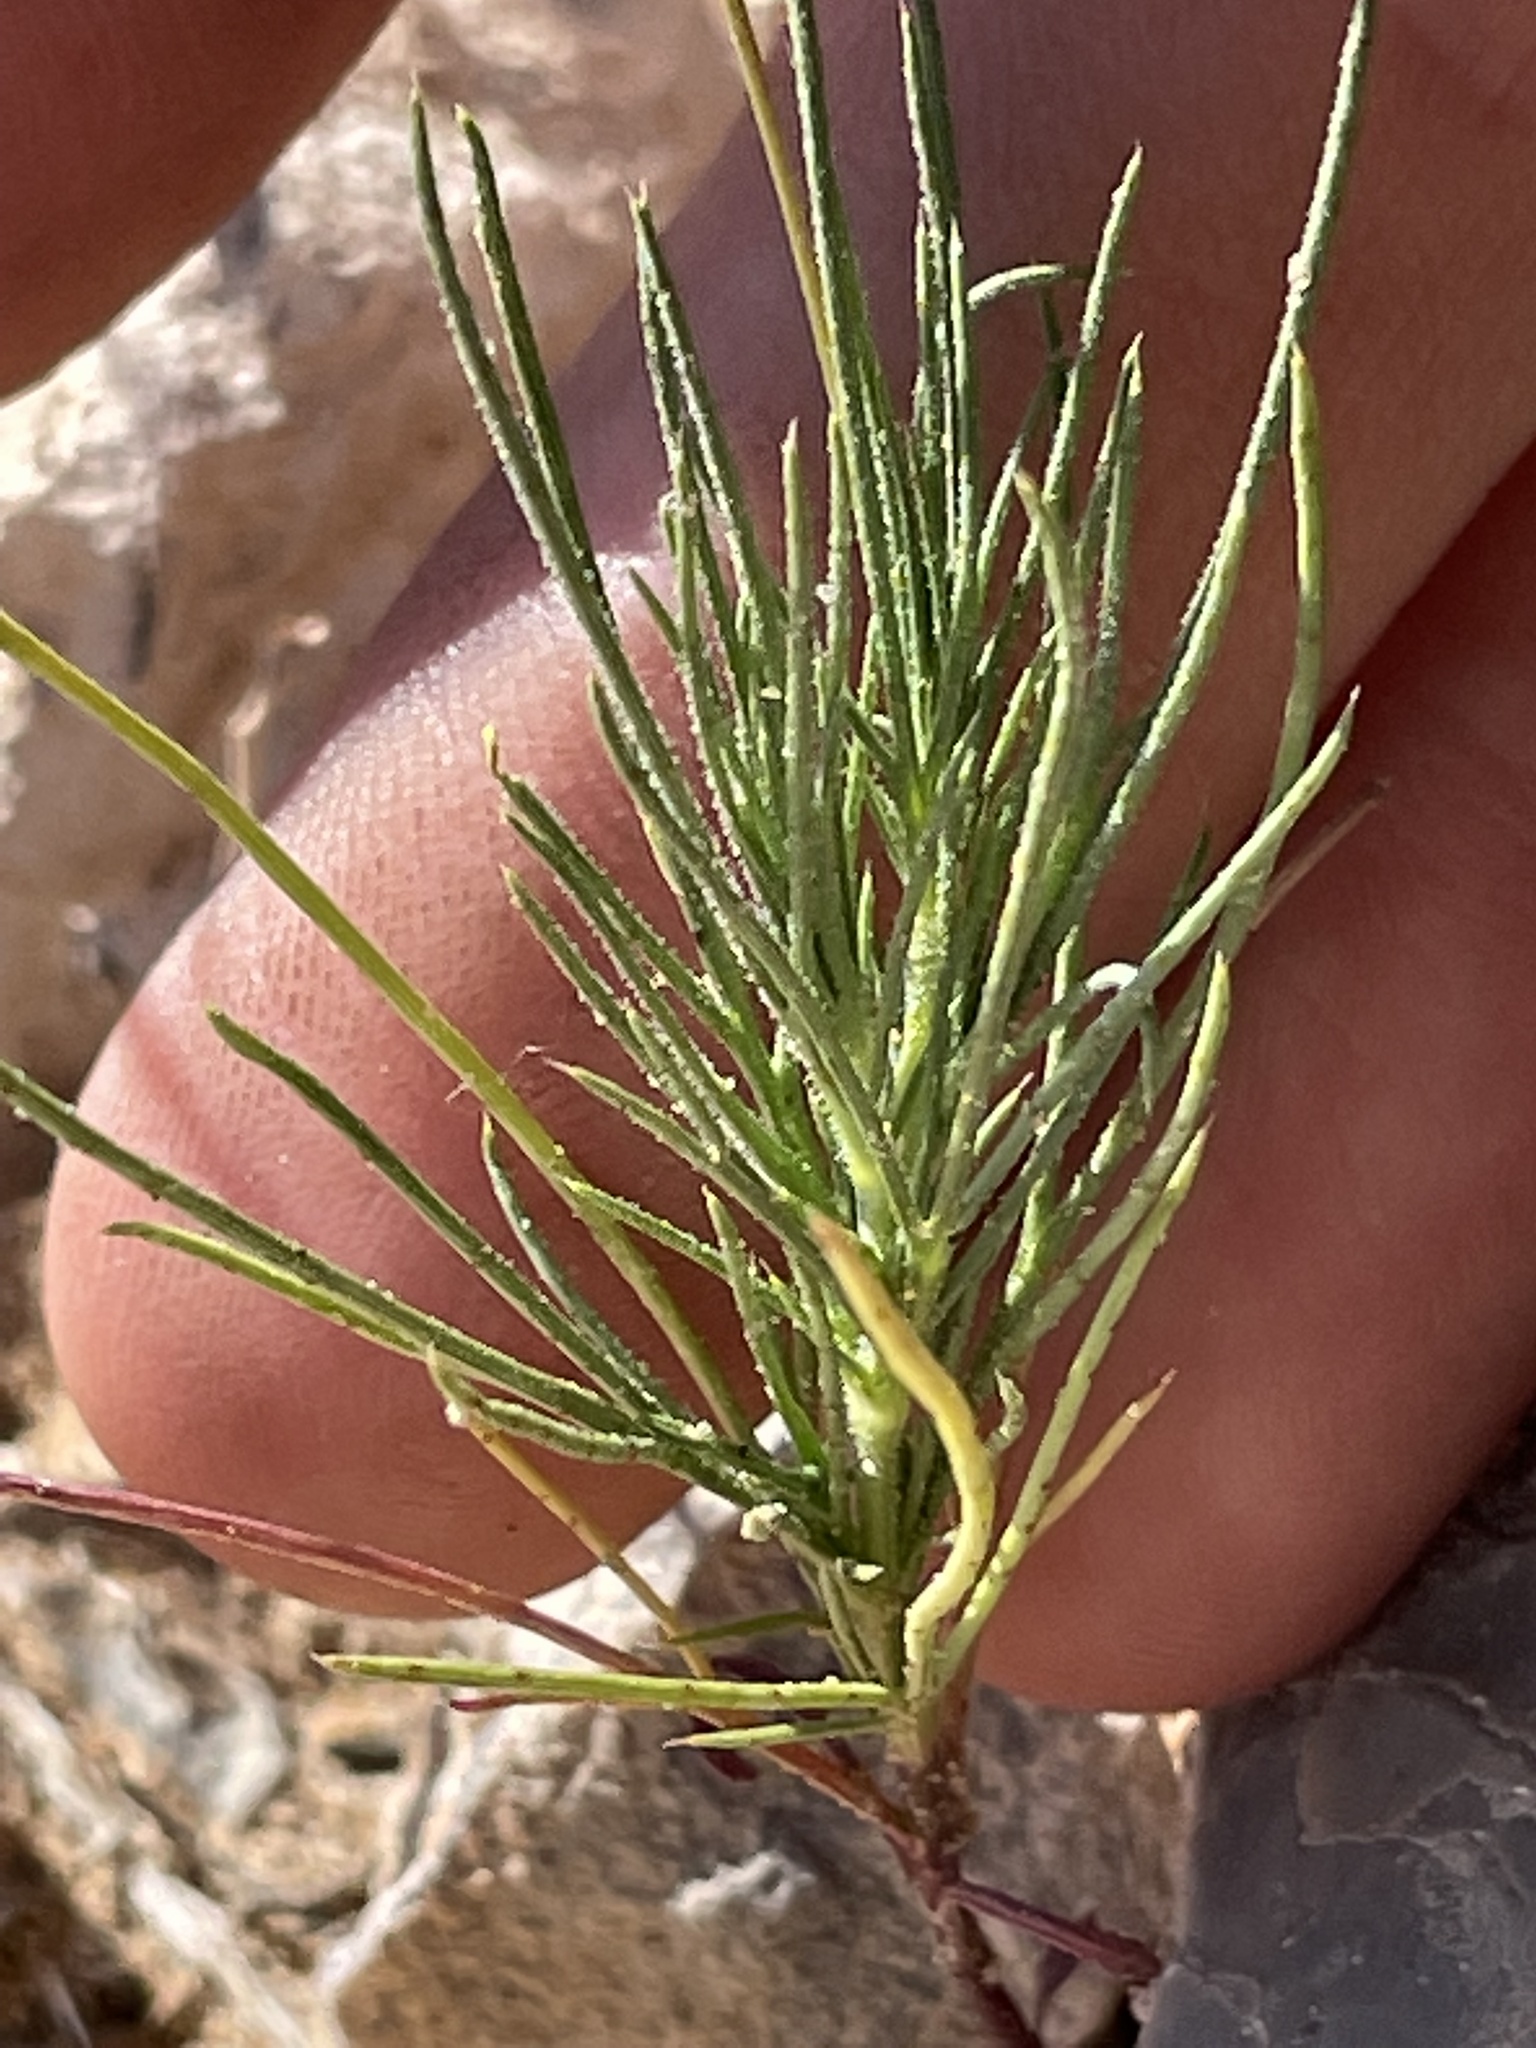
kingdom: Plantae
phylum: Tracheophyta
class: Magnoliopsida
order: Asterales
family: Asteraceae
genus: Thymophylla
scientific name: Thymophylla pentachaeta
